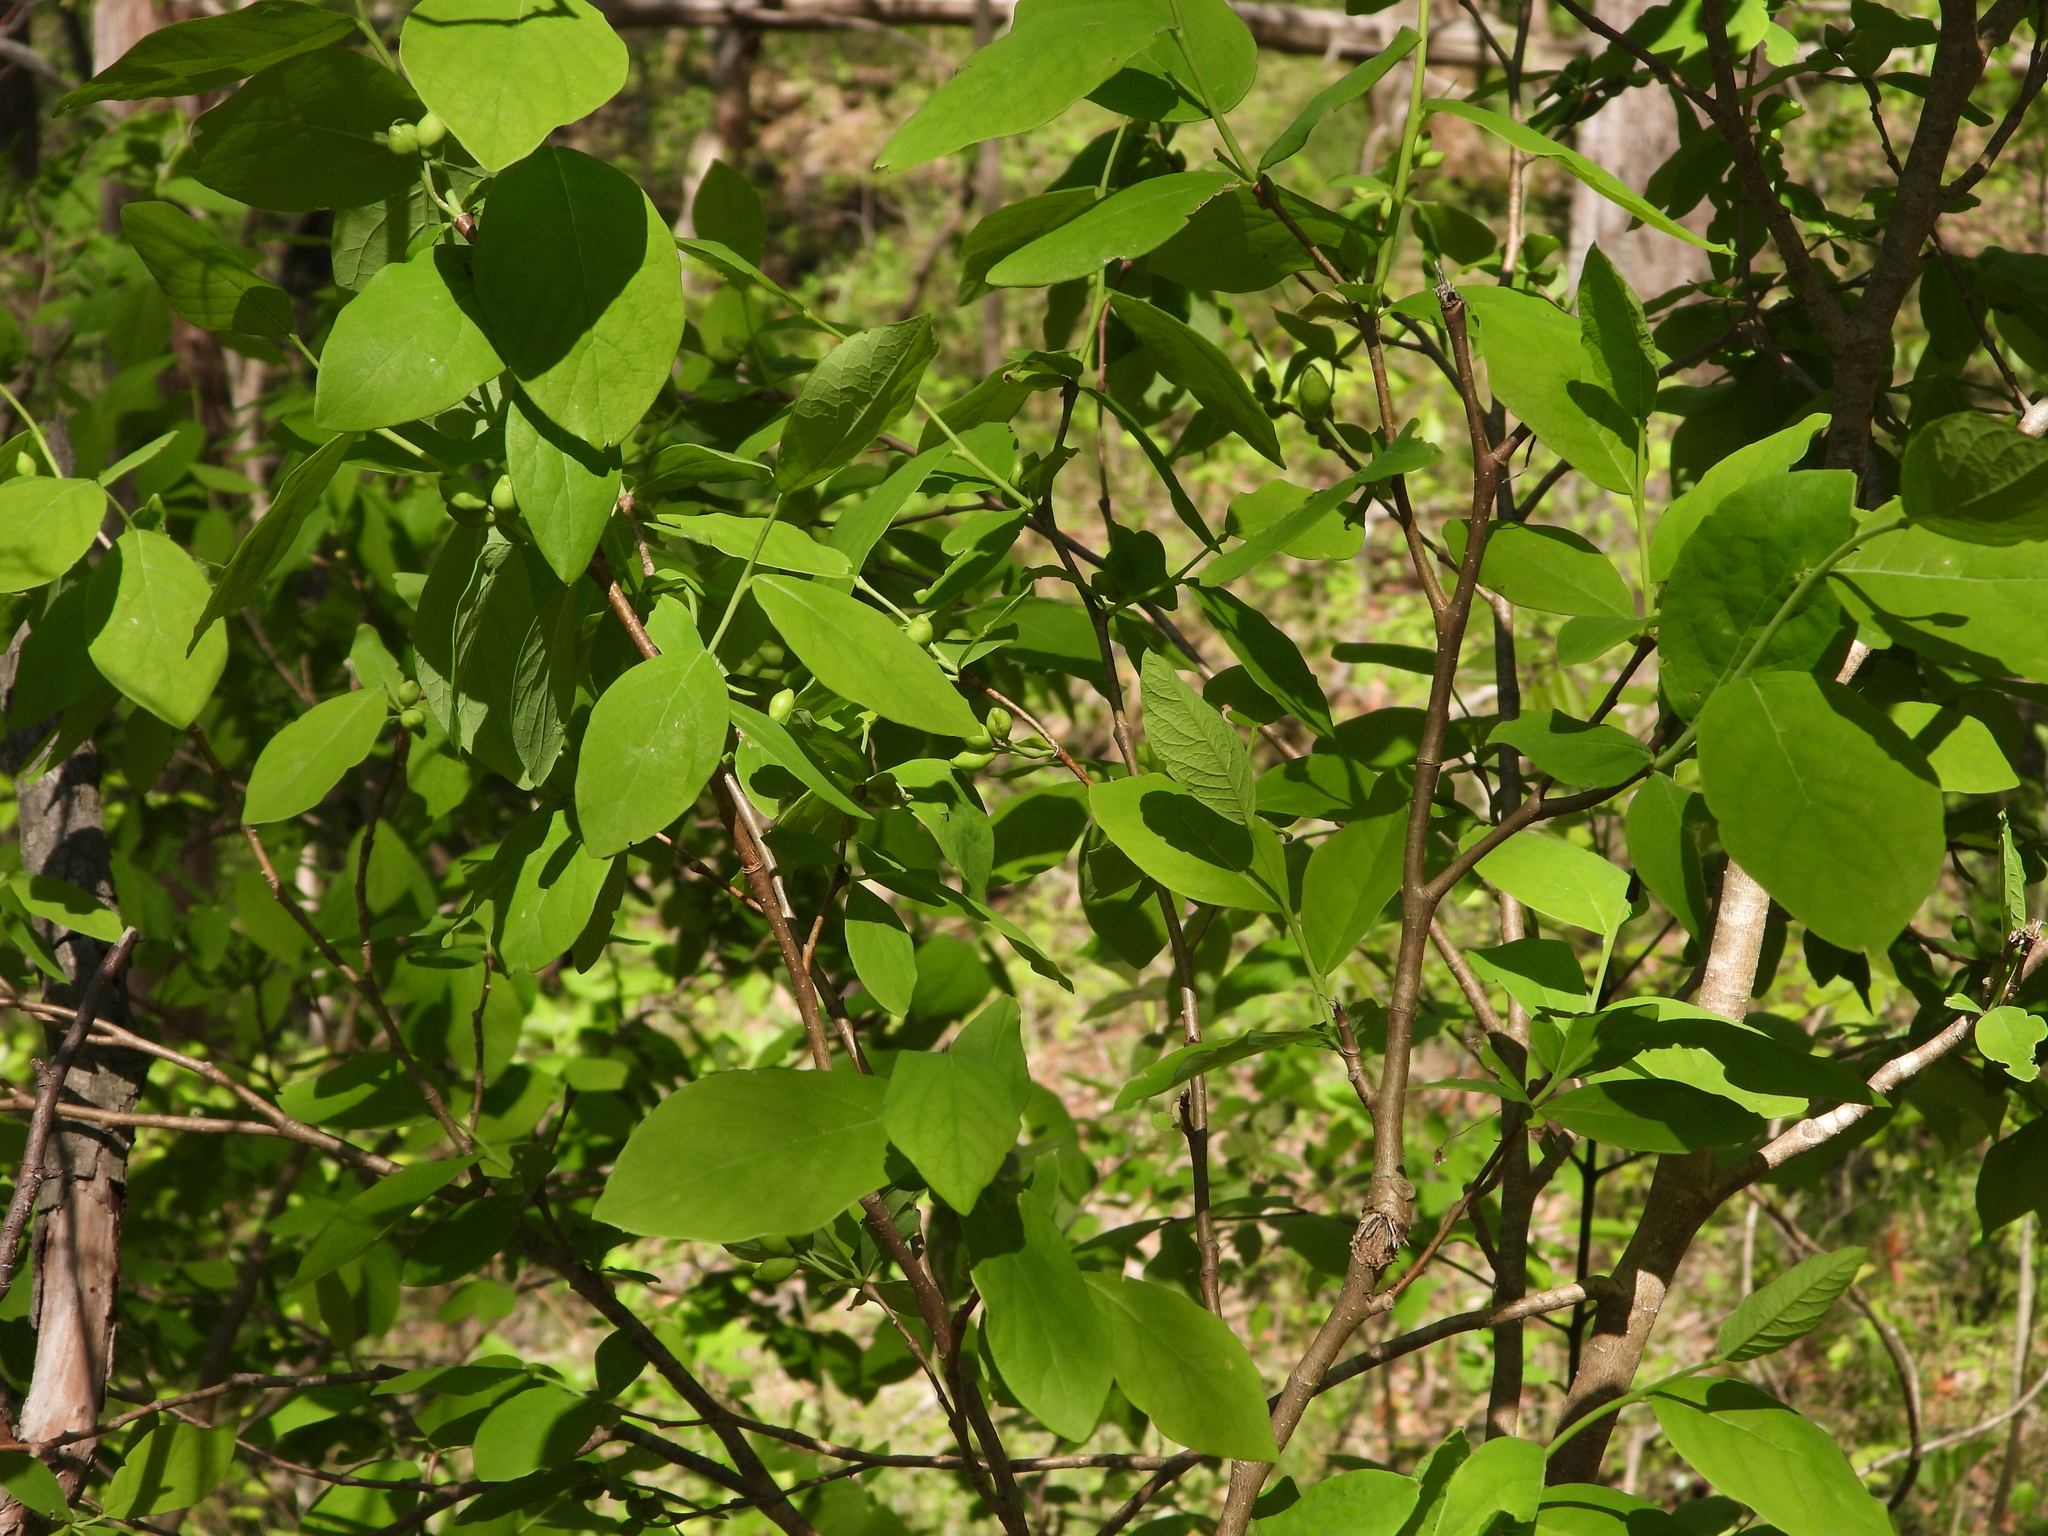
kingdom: Plantae
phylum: Tracheophyta
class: Magnoliopsida
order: Malvales
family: Thymelaeaceae
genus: Dirca
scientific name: Dirca palustris
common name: Leatherwood
